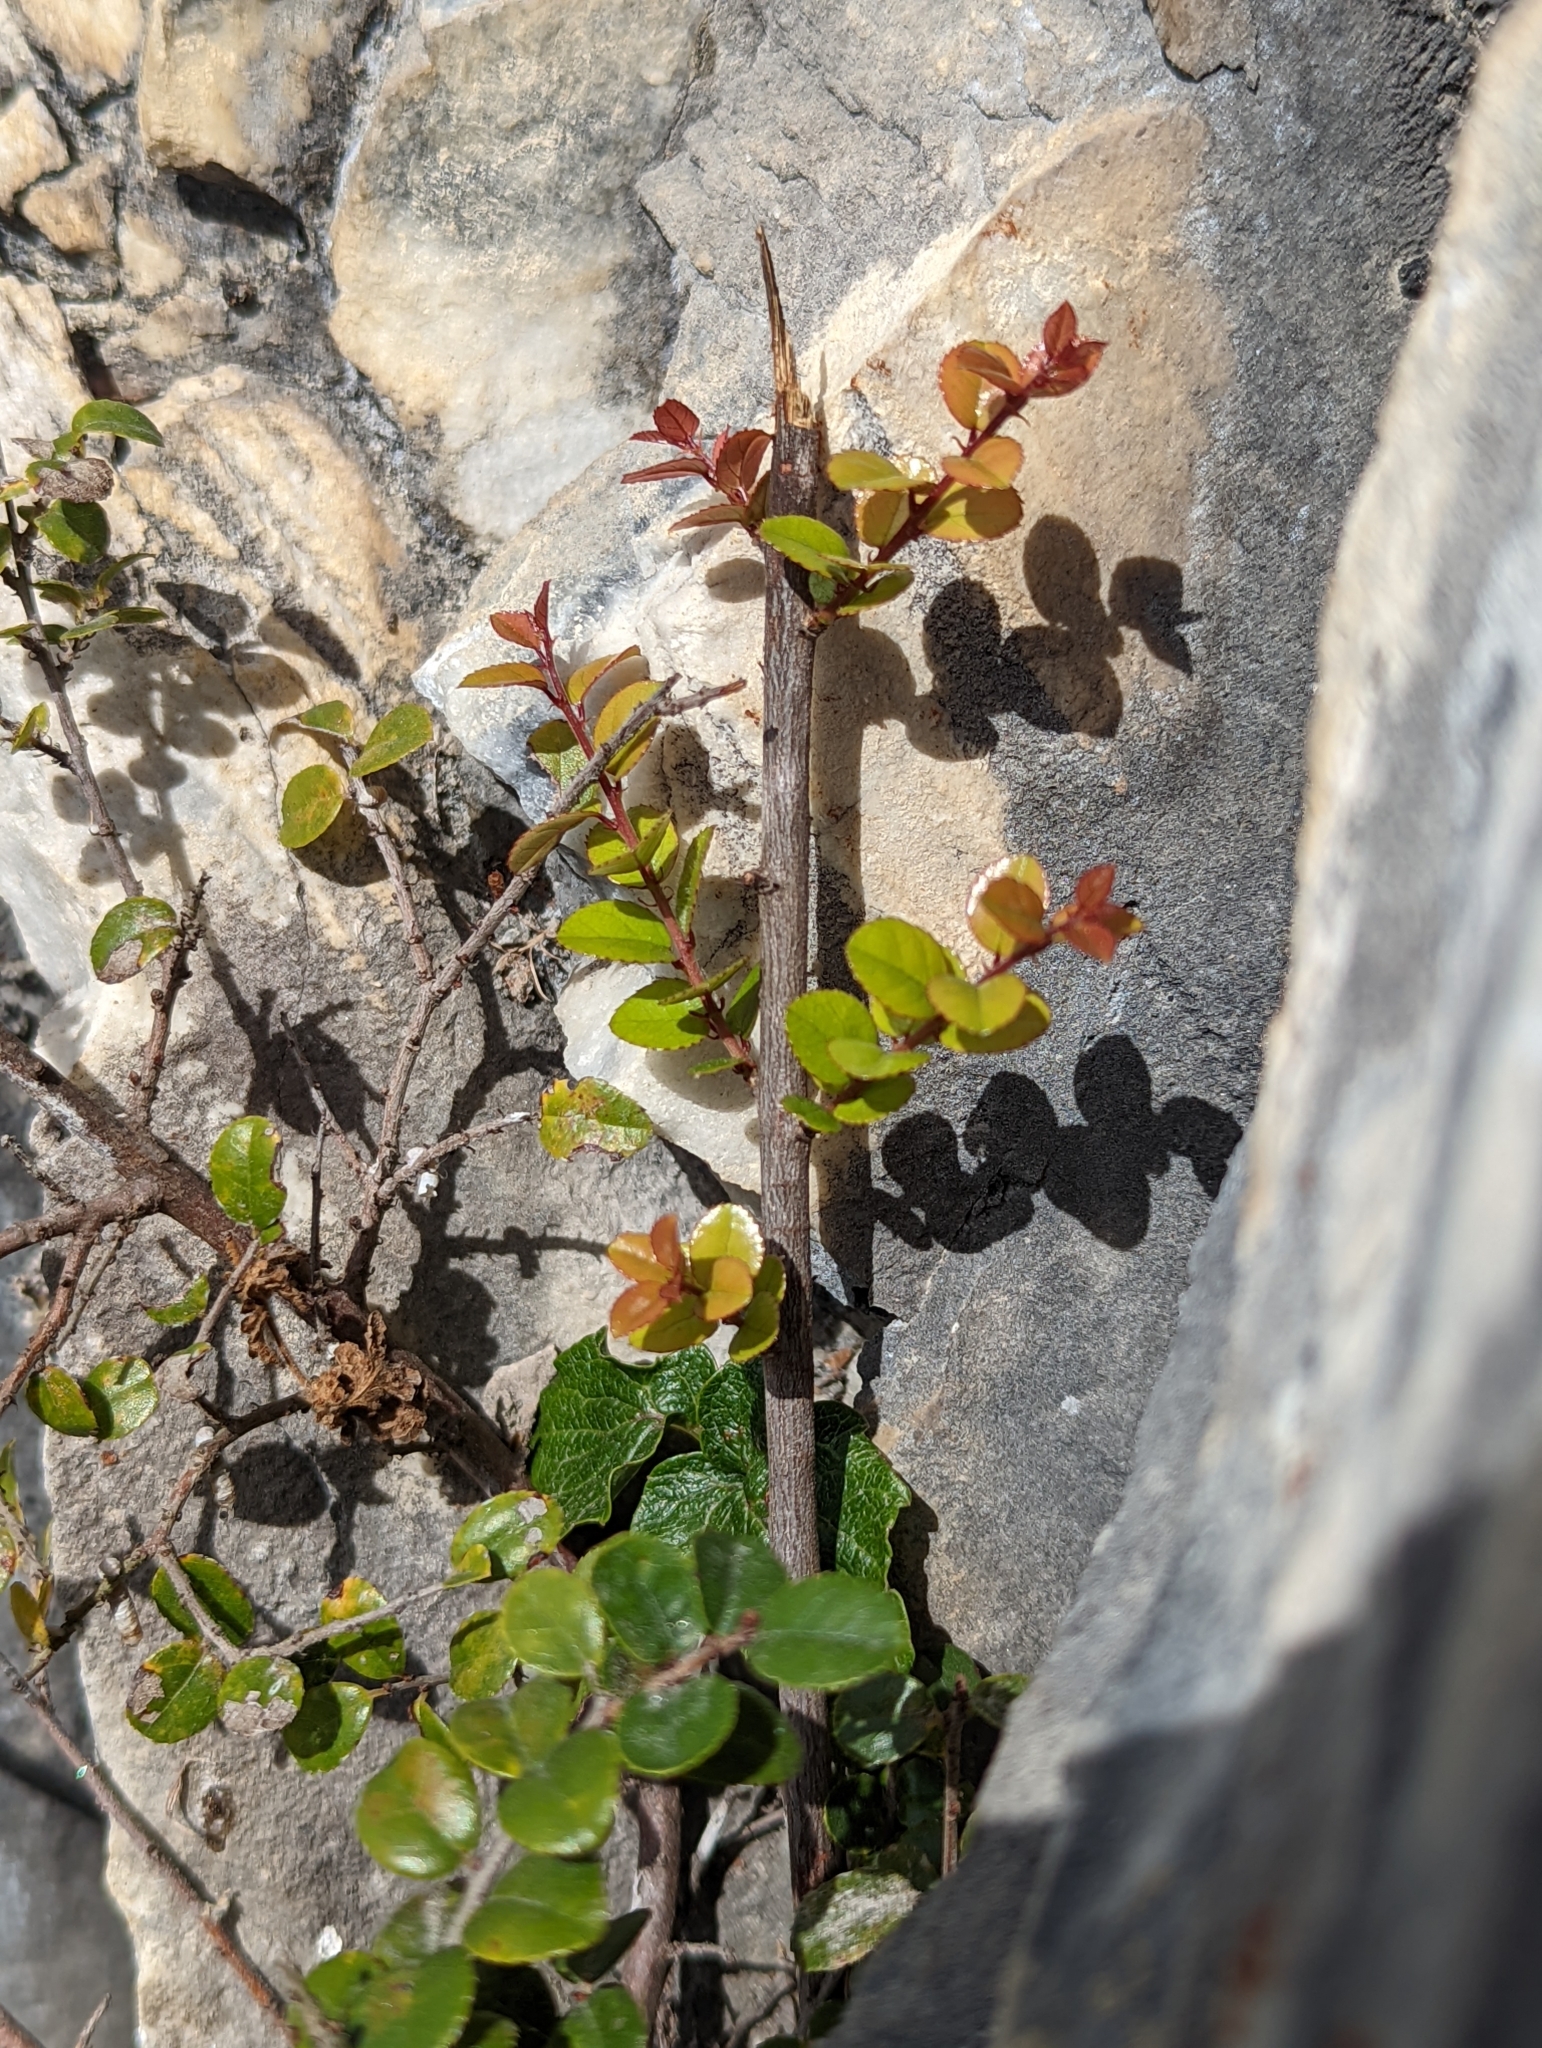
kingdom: Plantae
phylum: Tracheophyta
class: Magnoliopsida
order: Rosales
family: Rhamnaceae
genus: Sageretia
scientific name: Sageretia thea
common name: Pauper's-tea
